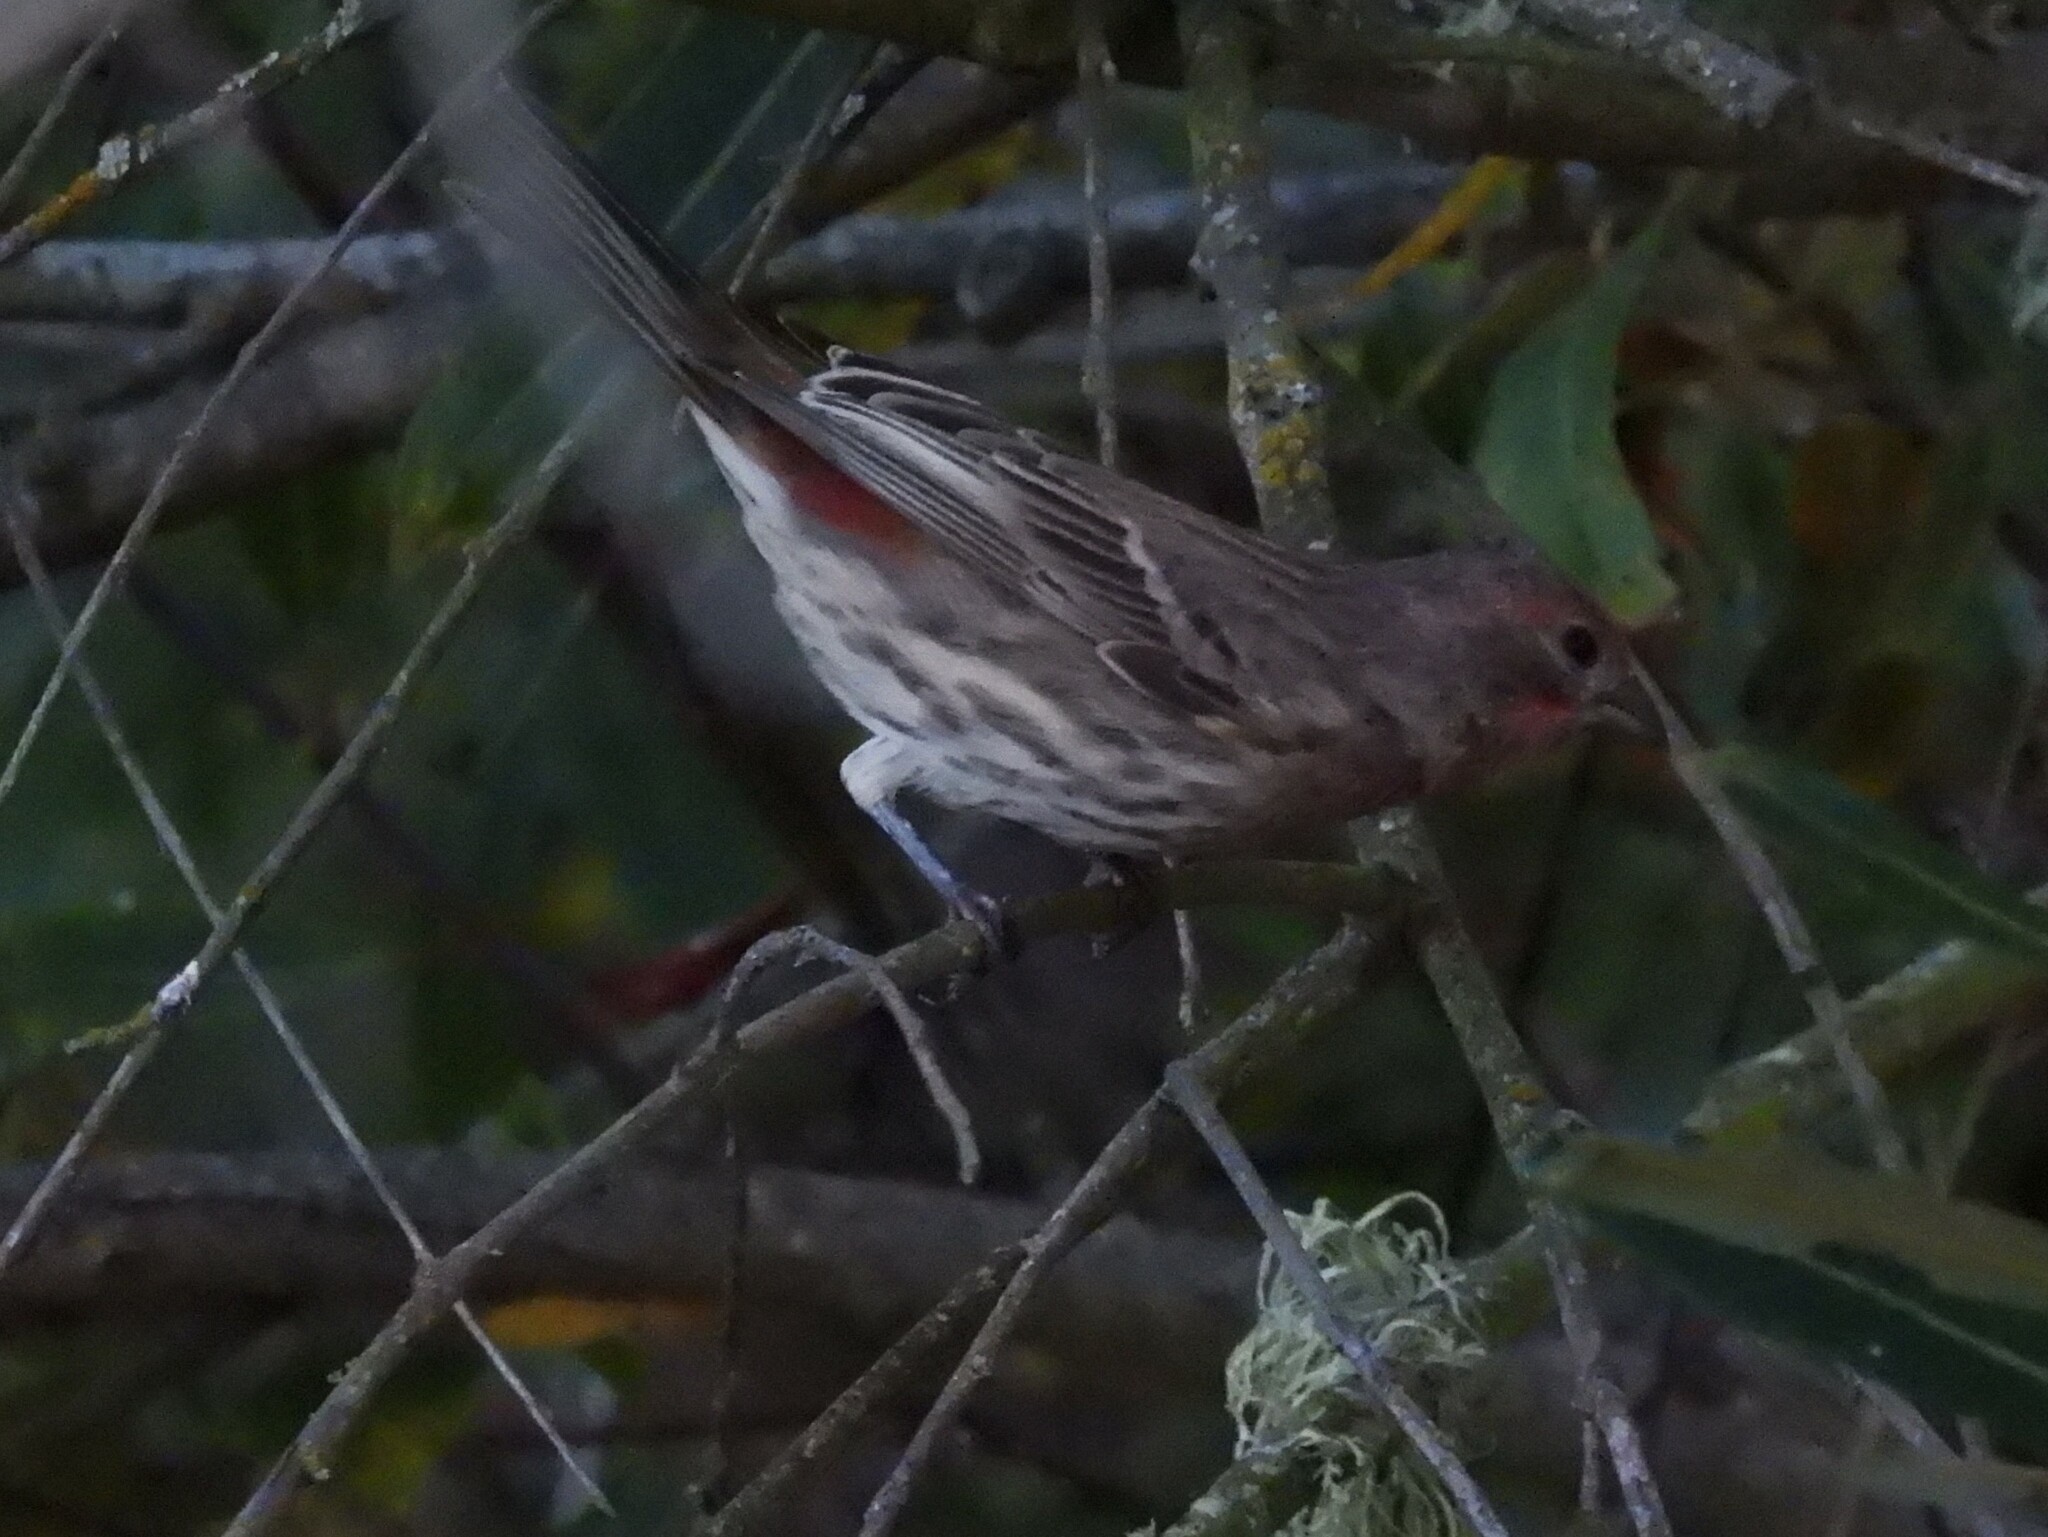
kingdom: Animalia
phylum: Chordata
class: Aves
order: Passeriformes
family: Fringillidae
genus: Haemorhous
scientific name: Haemorhous mexicanus
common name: House finch
